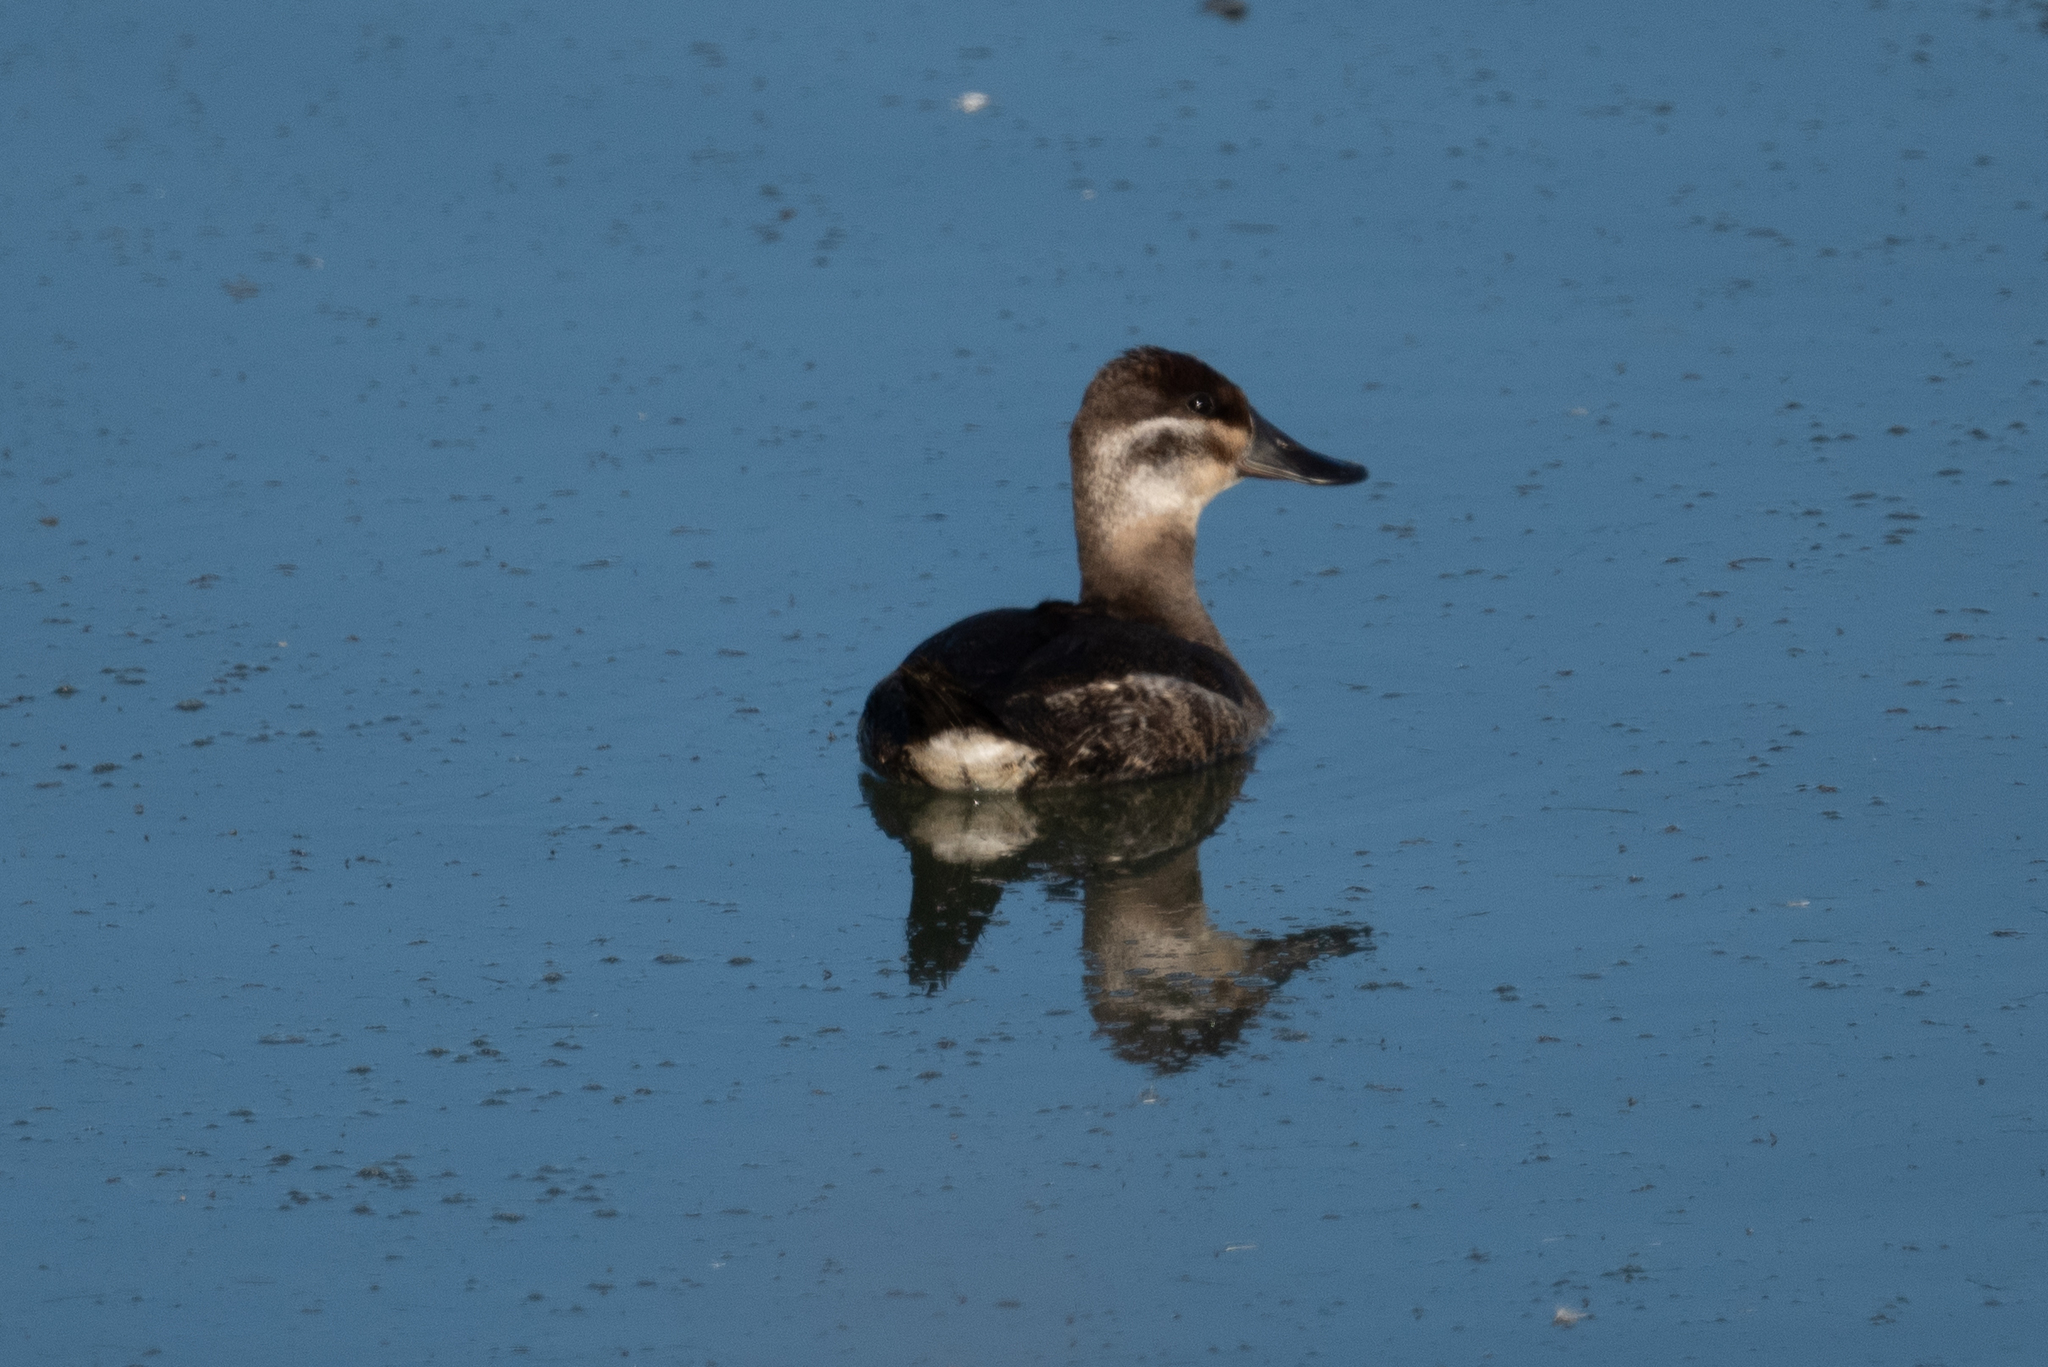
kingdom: Animalia
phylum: Chordata
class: Aves
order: Anseriformes
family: Anatidae
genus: Oxyura
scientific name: Oxyura jamaicensis
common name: Ruddy duck
